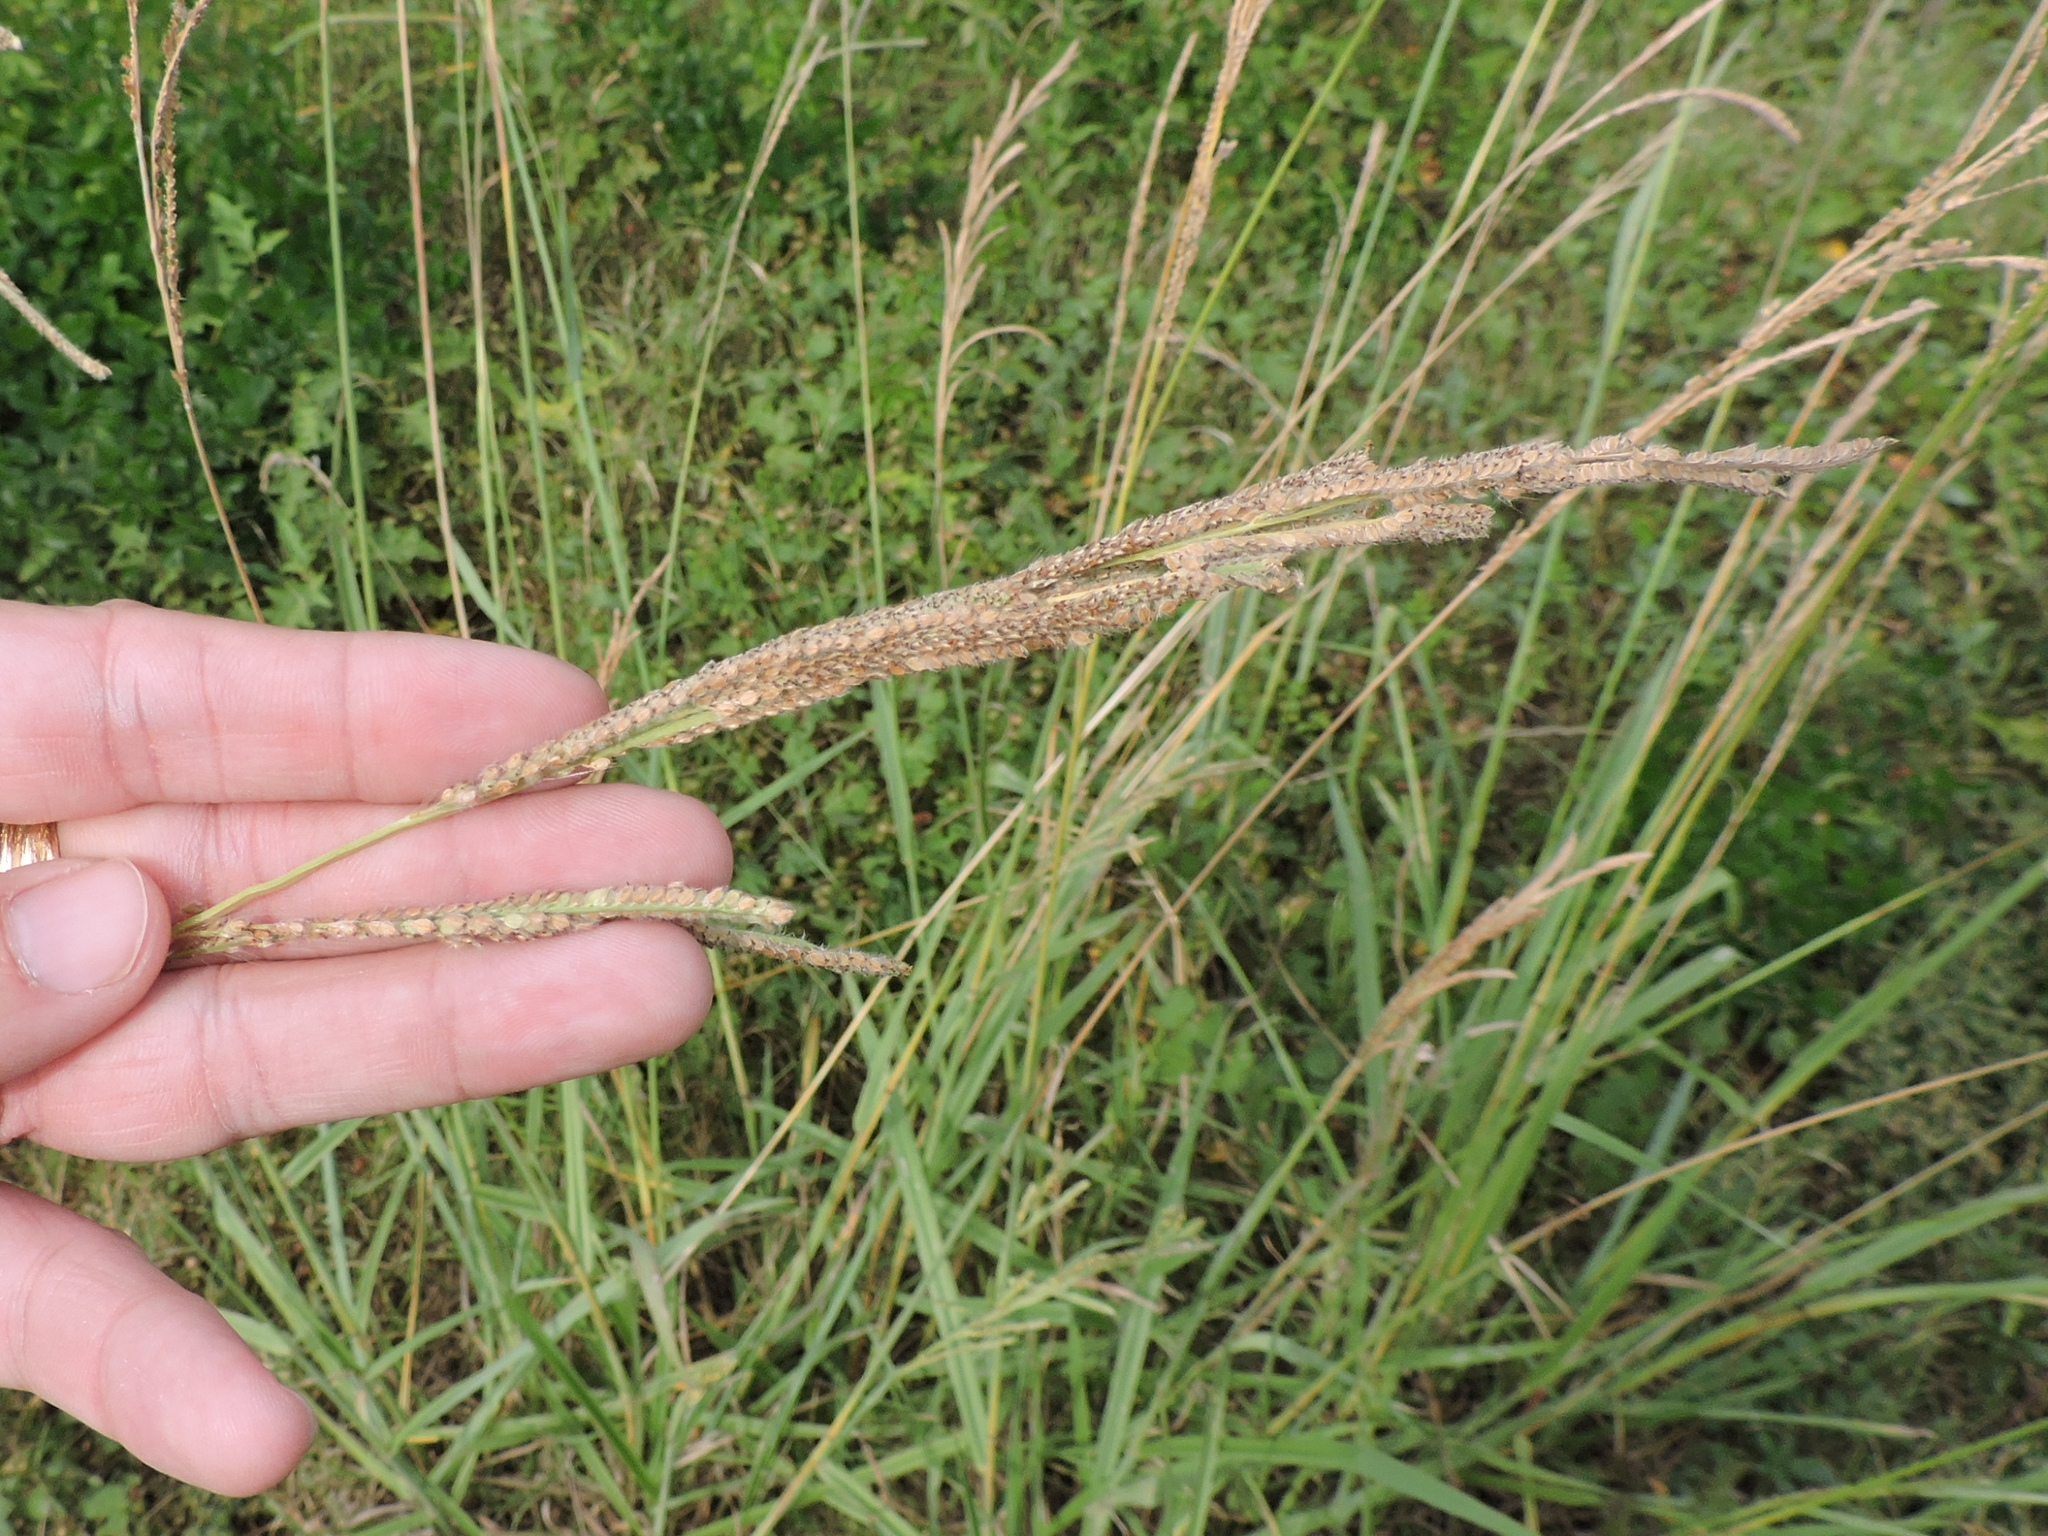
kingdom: Plantae
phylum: Tracheophyta
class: Liliopsida
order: Poales
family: Poaceae
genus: Paspalum
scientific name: Paspalum urvillei
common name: Vasey's grass
